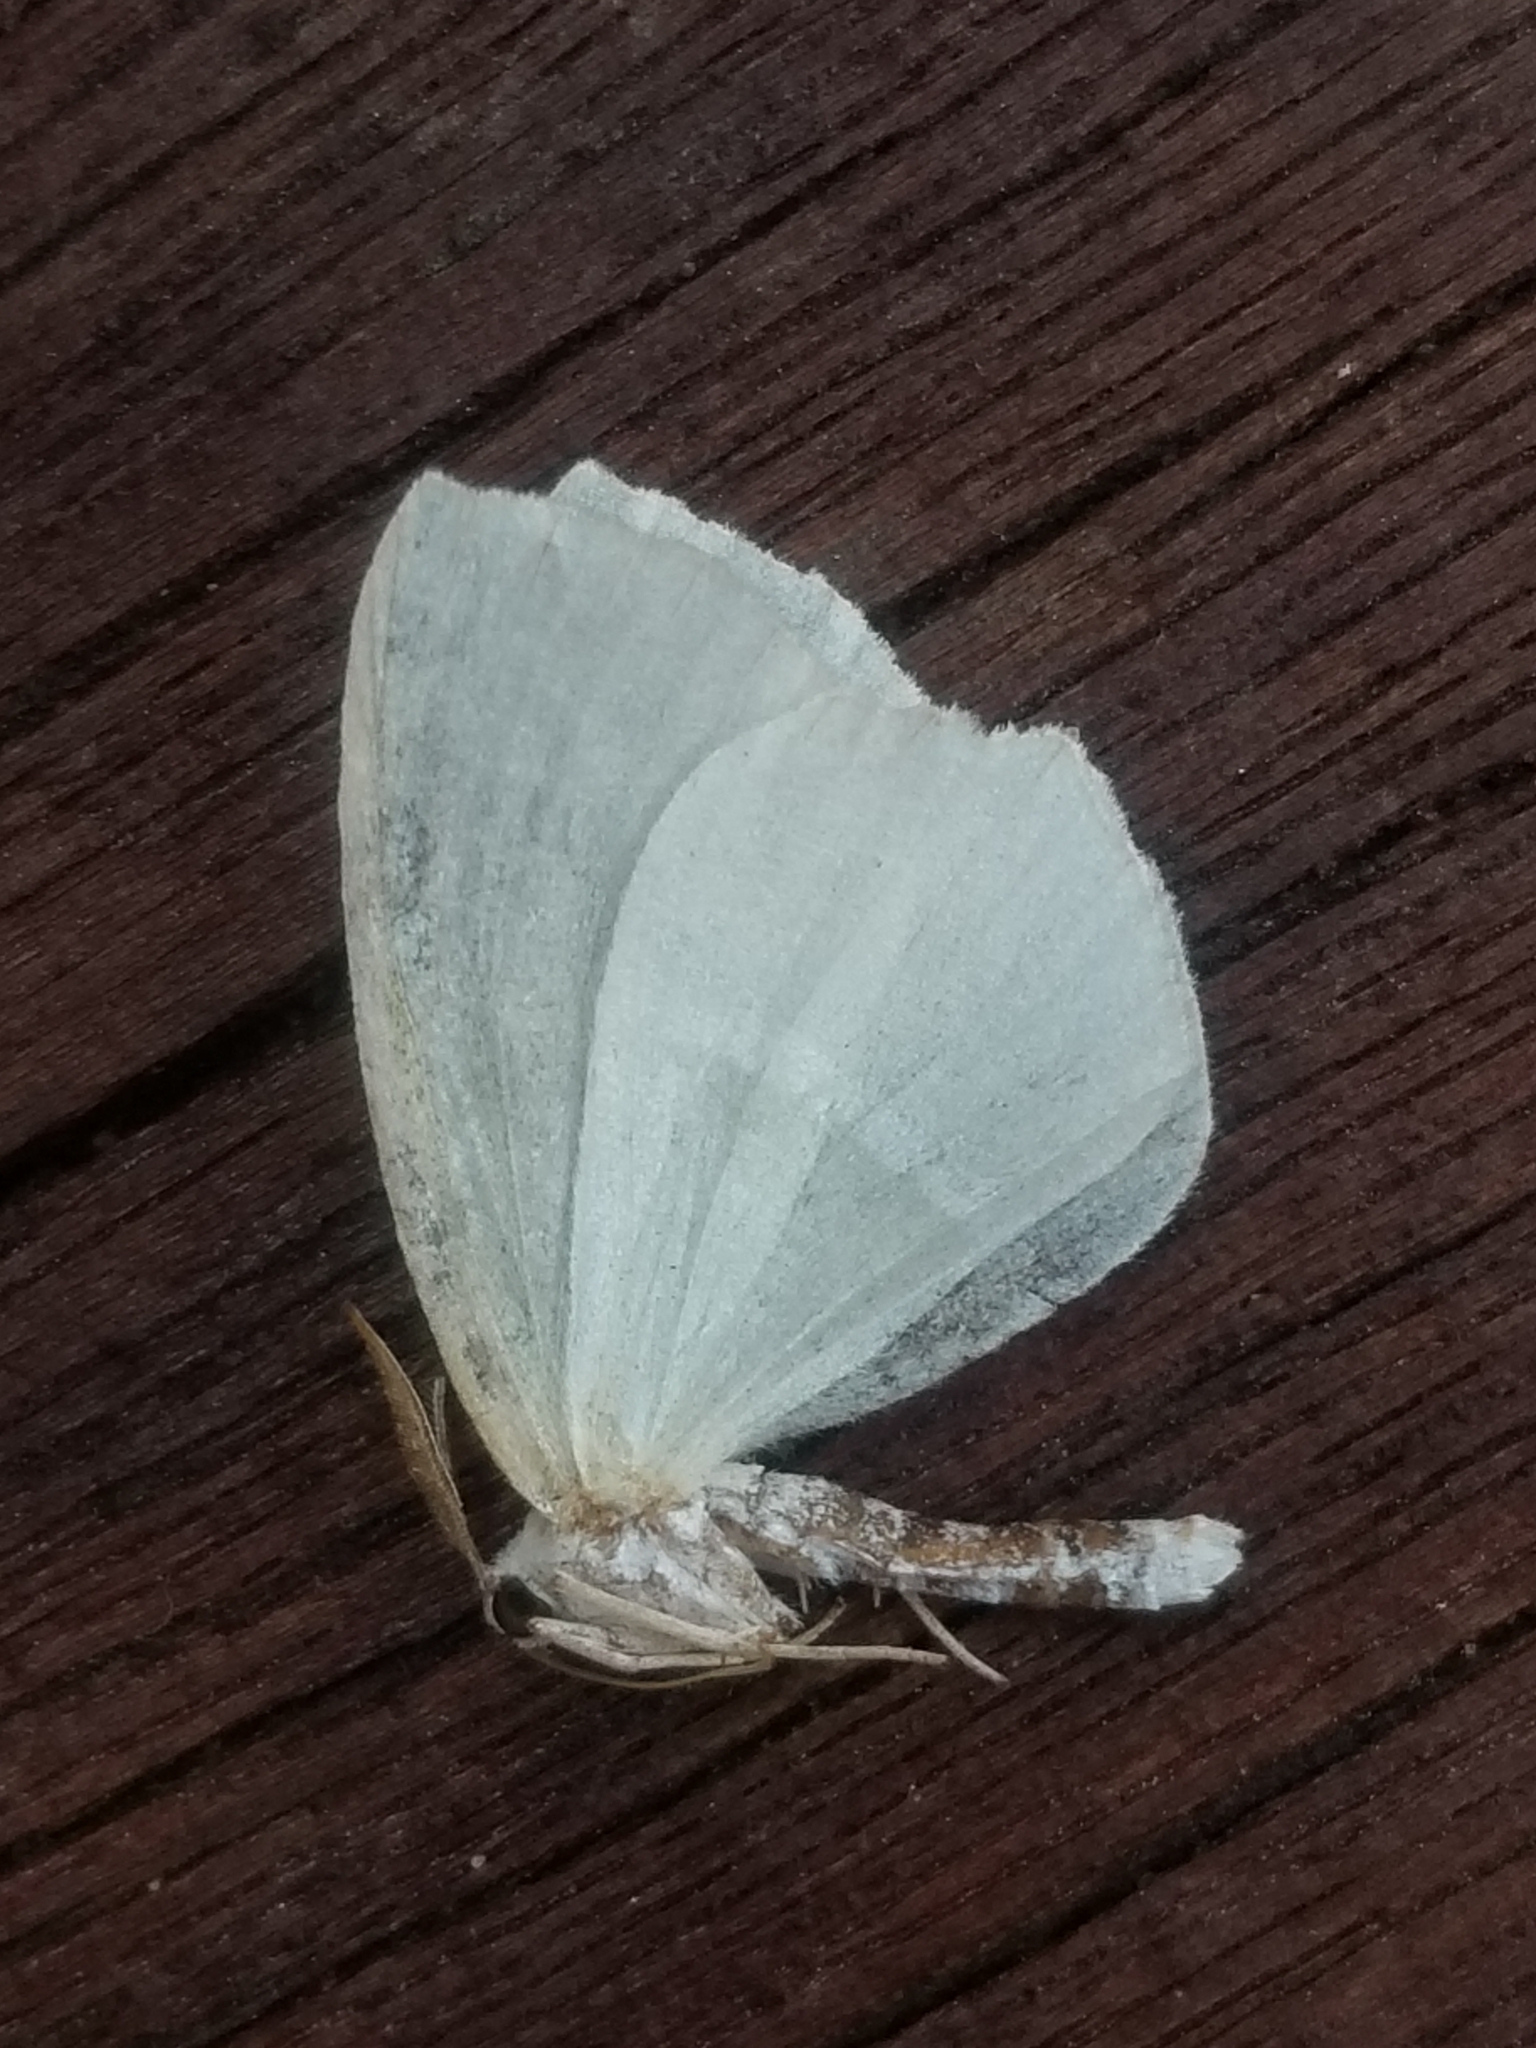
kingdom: Animalia
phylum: Arthropoda
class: Insecta
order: Lepidoptera
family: Geometridae
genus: Campaea
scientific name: Campaea perlata
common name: Fringed looper
